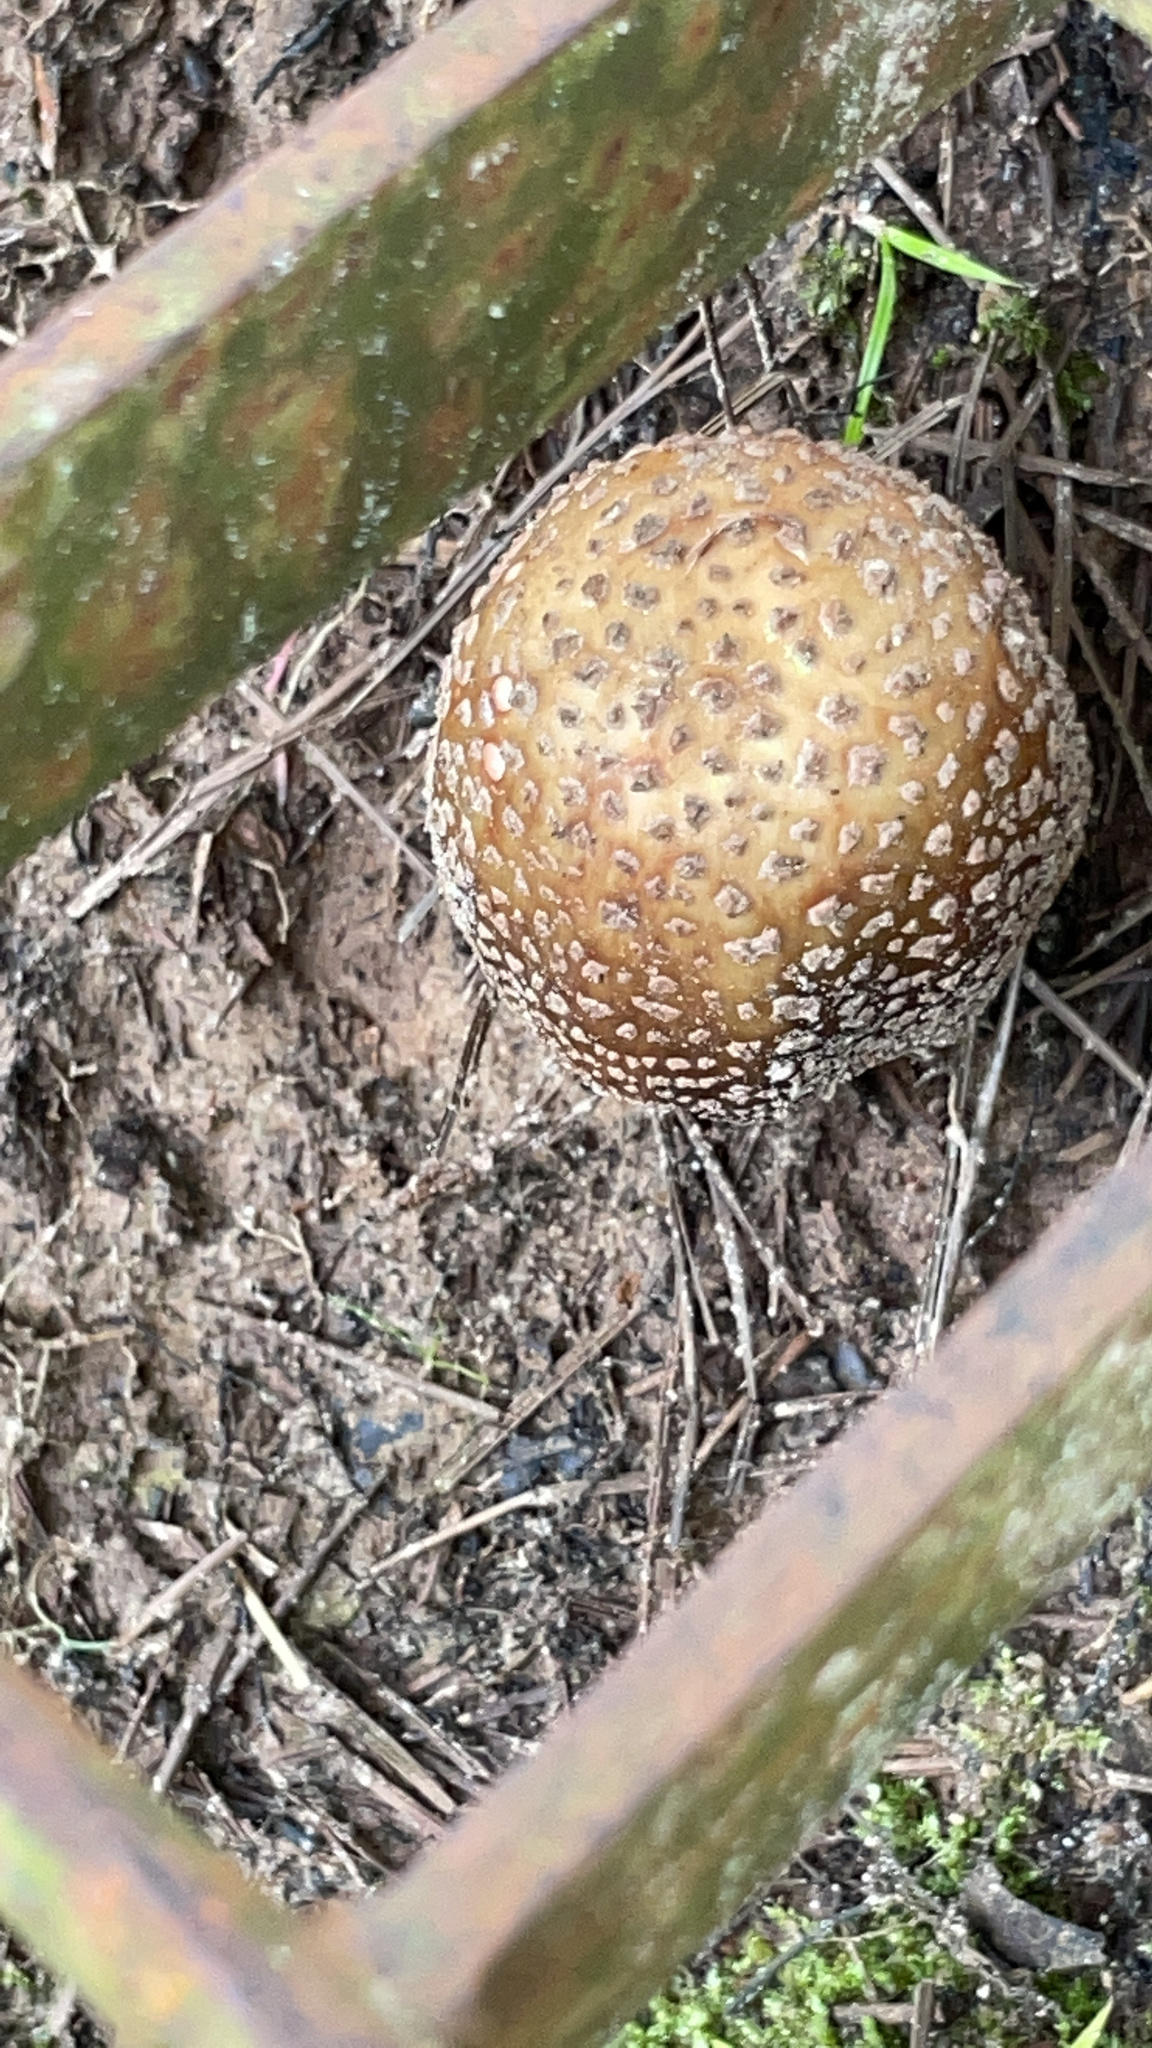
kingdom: Fungi
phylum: Basidiomycota
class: Agaricomycetes
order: Agaricales
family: Amanitaceae
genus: Amanita
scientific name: Amanita rubescens
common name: Blusher
